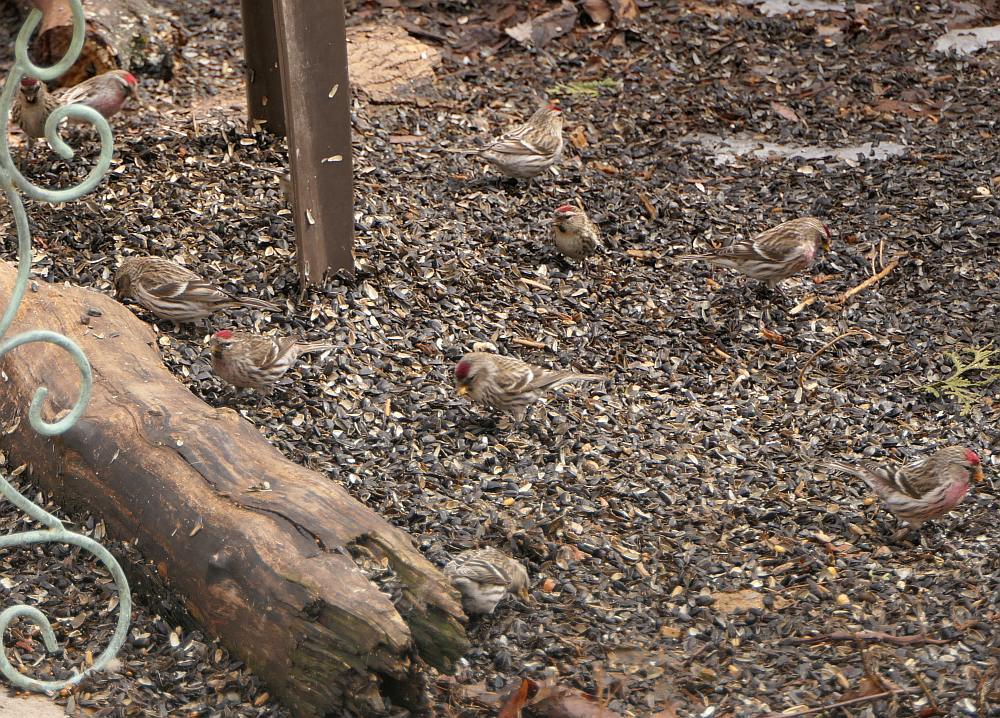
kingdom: Animalia
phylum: Chordata
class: Aves
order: Passeriformes
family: Fringillidae
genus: Acanthis
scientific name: Acanthis flammea
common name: Common redpoll
